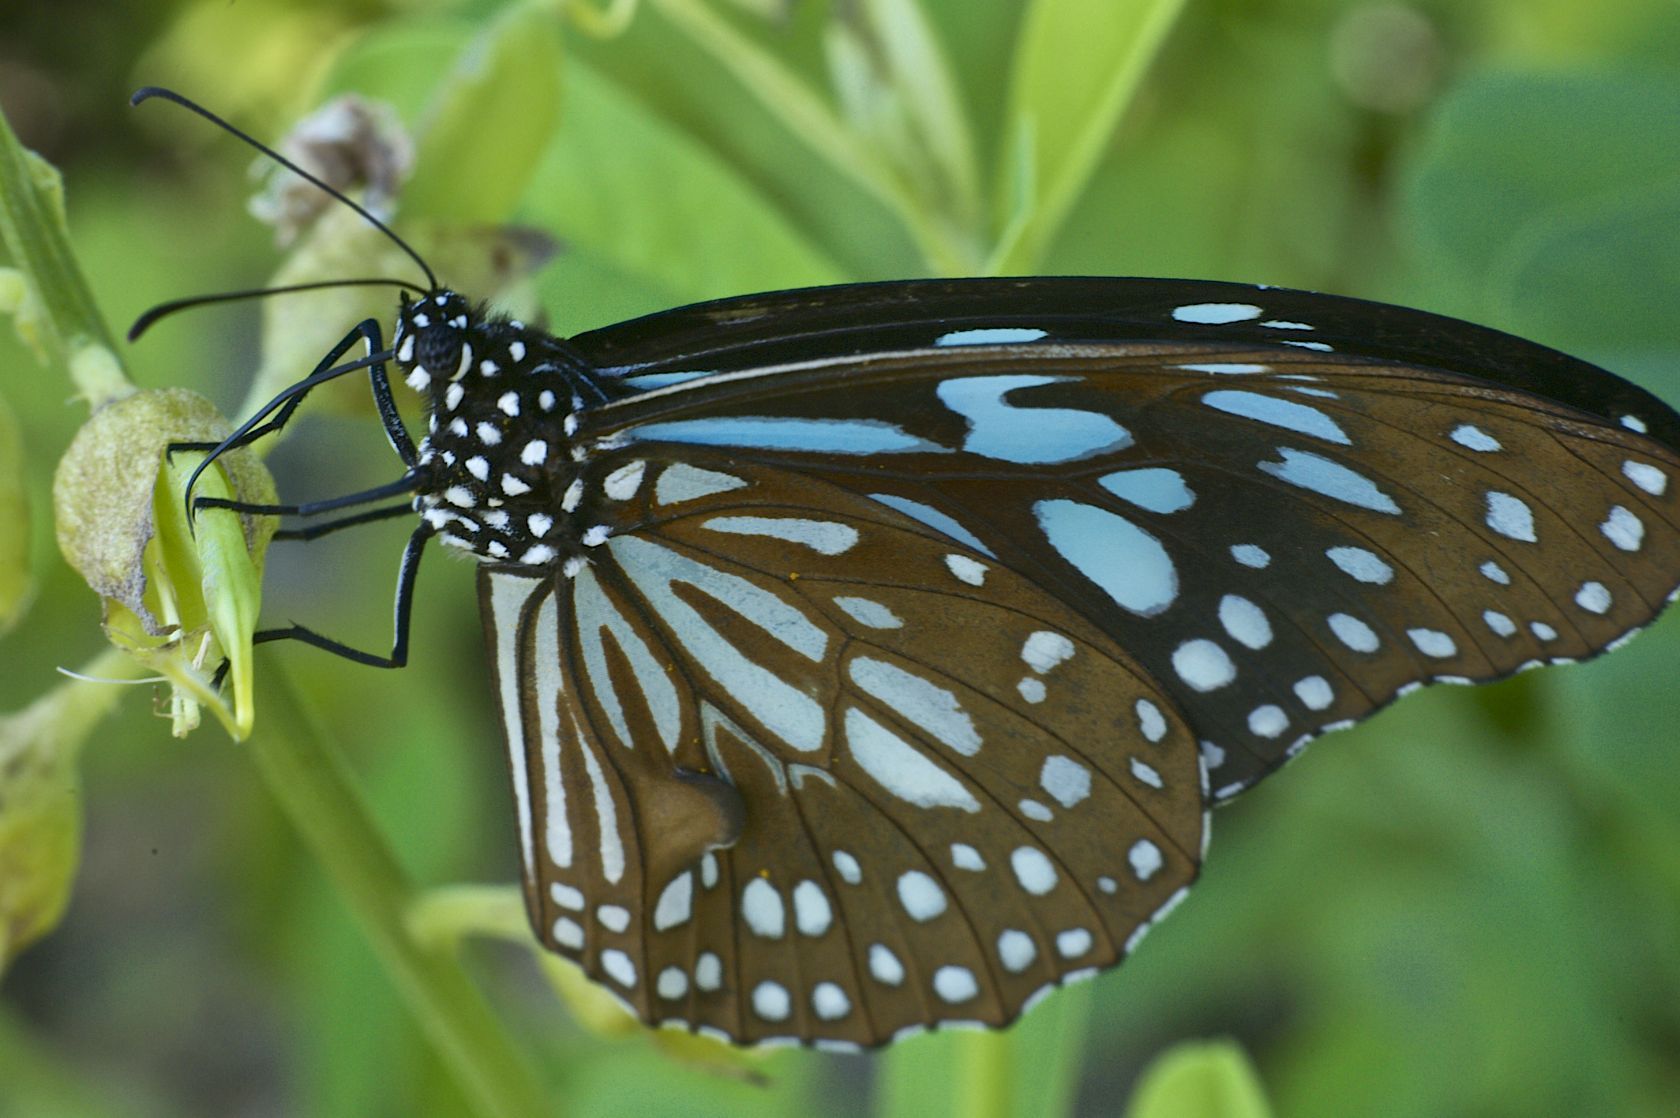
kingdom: Animalia
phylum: Arthropoda
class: Insecta
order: Lepidoptera
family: Nymphalidae
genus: Tirumala
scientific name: Tirumala limniace
